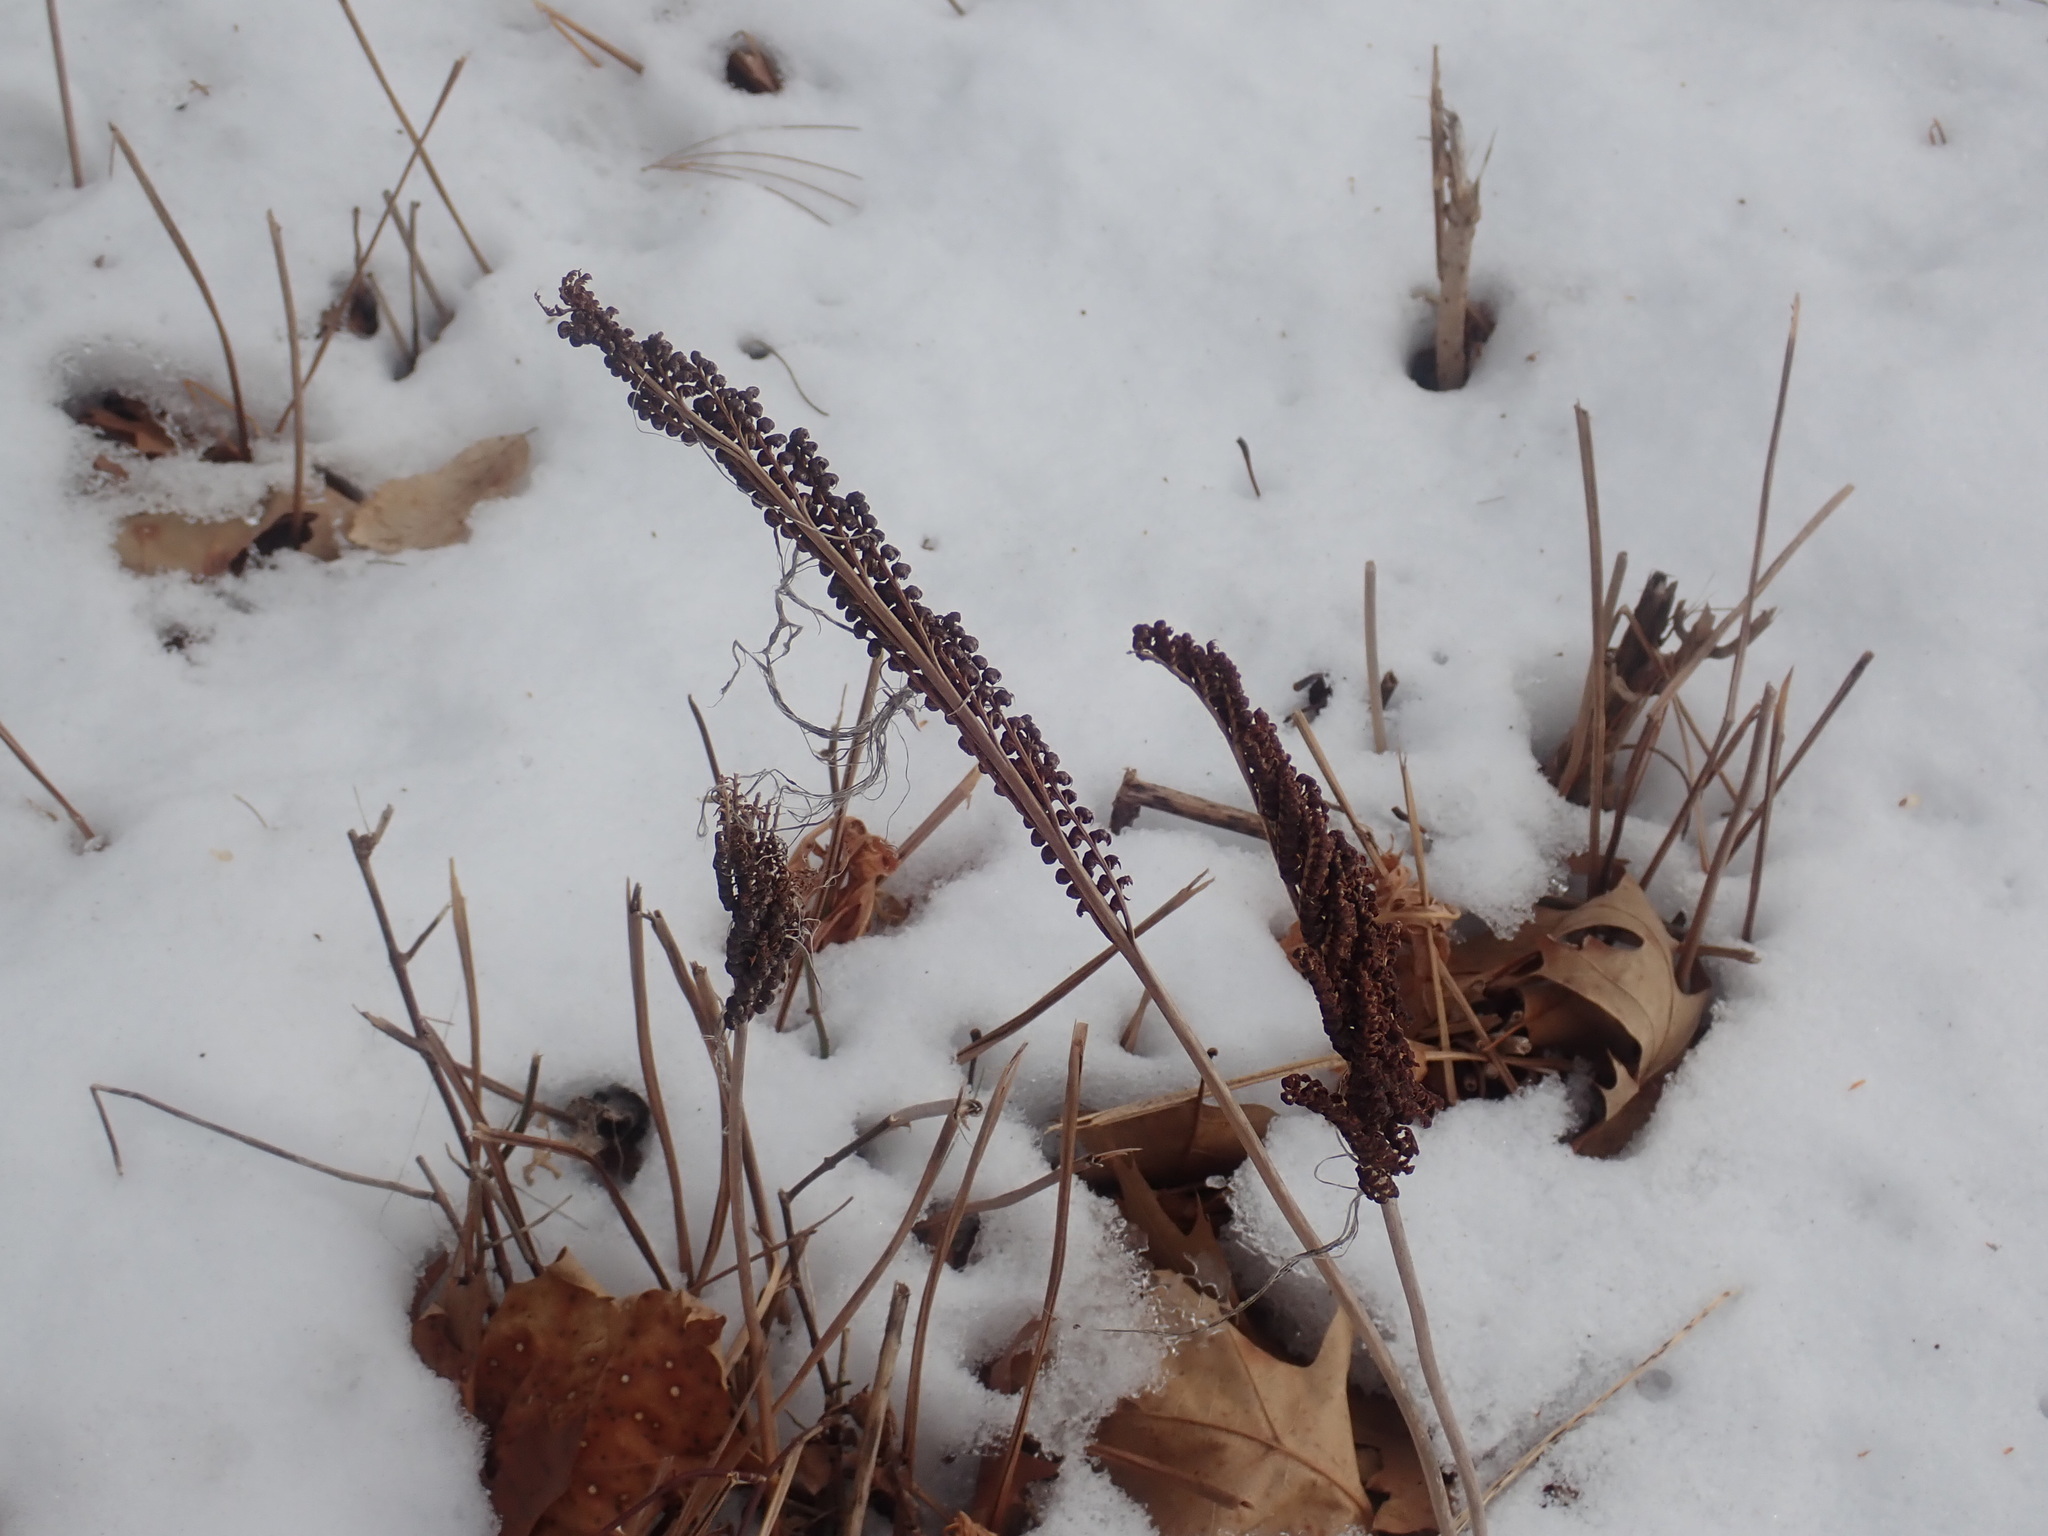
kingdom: Plantae
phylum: Tracheophyta
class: Polypodiopsida
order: Polypodiales
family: Onocleaceae
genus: Onoclea
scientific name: Onoclea sensibilis
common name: Sensitive fern
